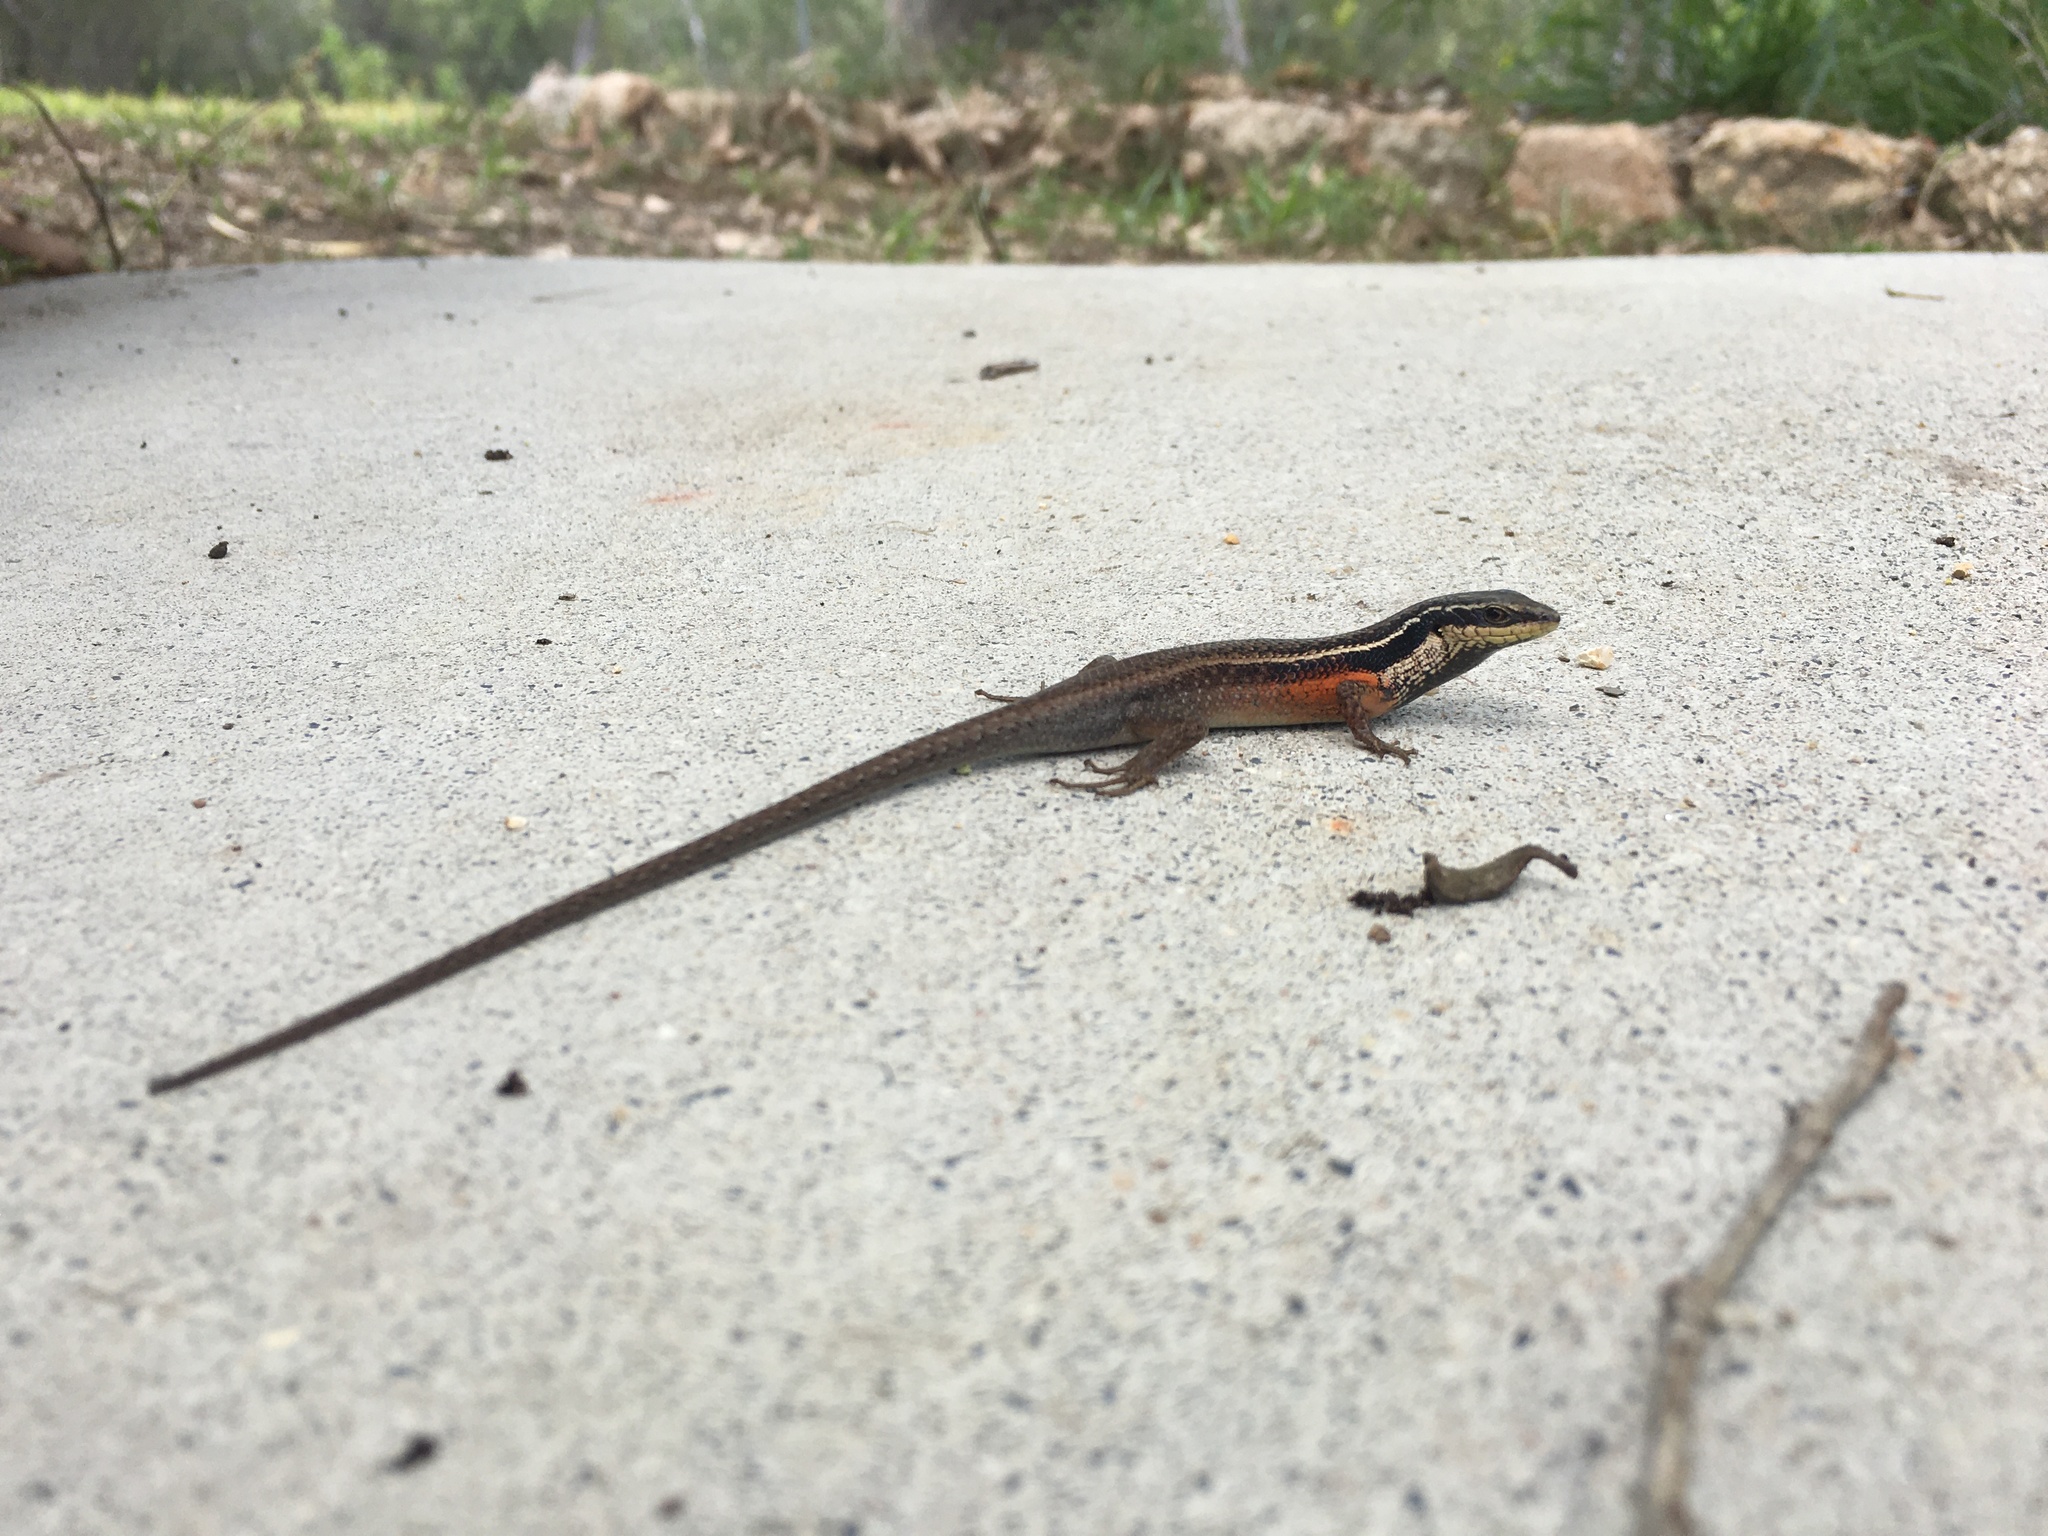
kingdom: Animalia
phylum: Chordata
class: Squamata
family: Scincidae
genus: Carlia
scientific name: Carlia rostralis
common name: Black-throated rainbow-skink
